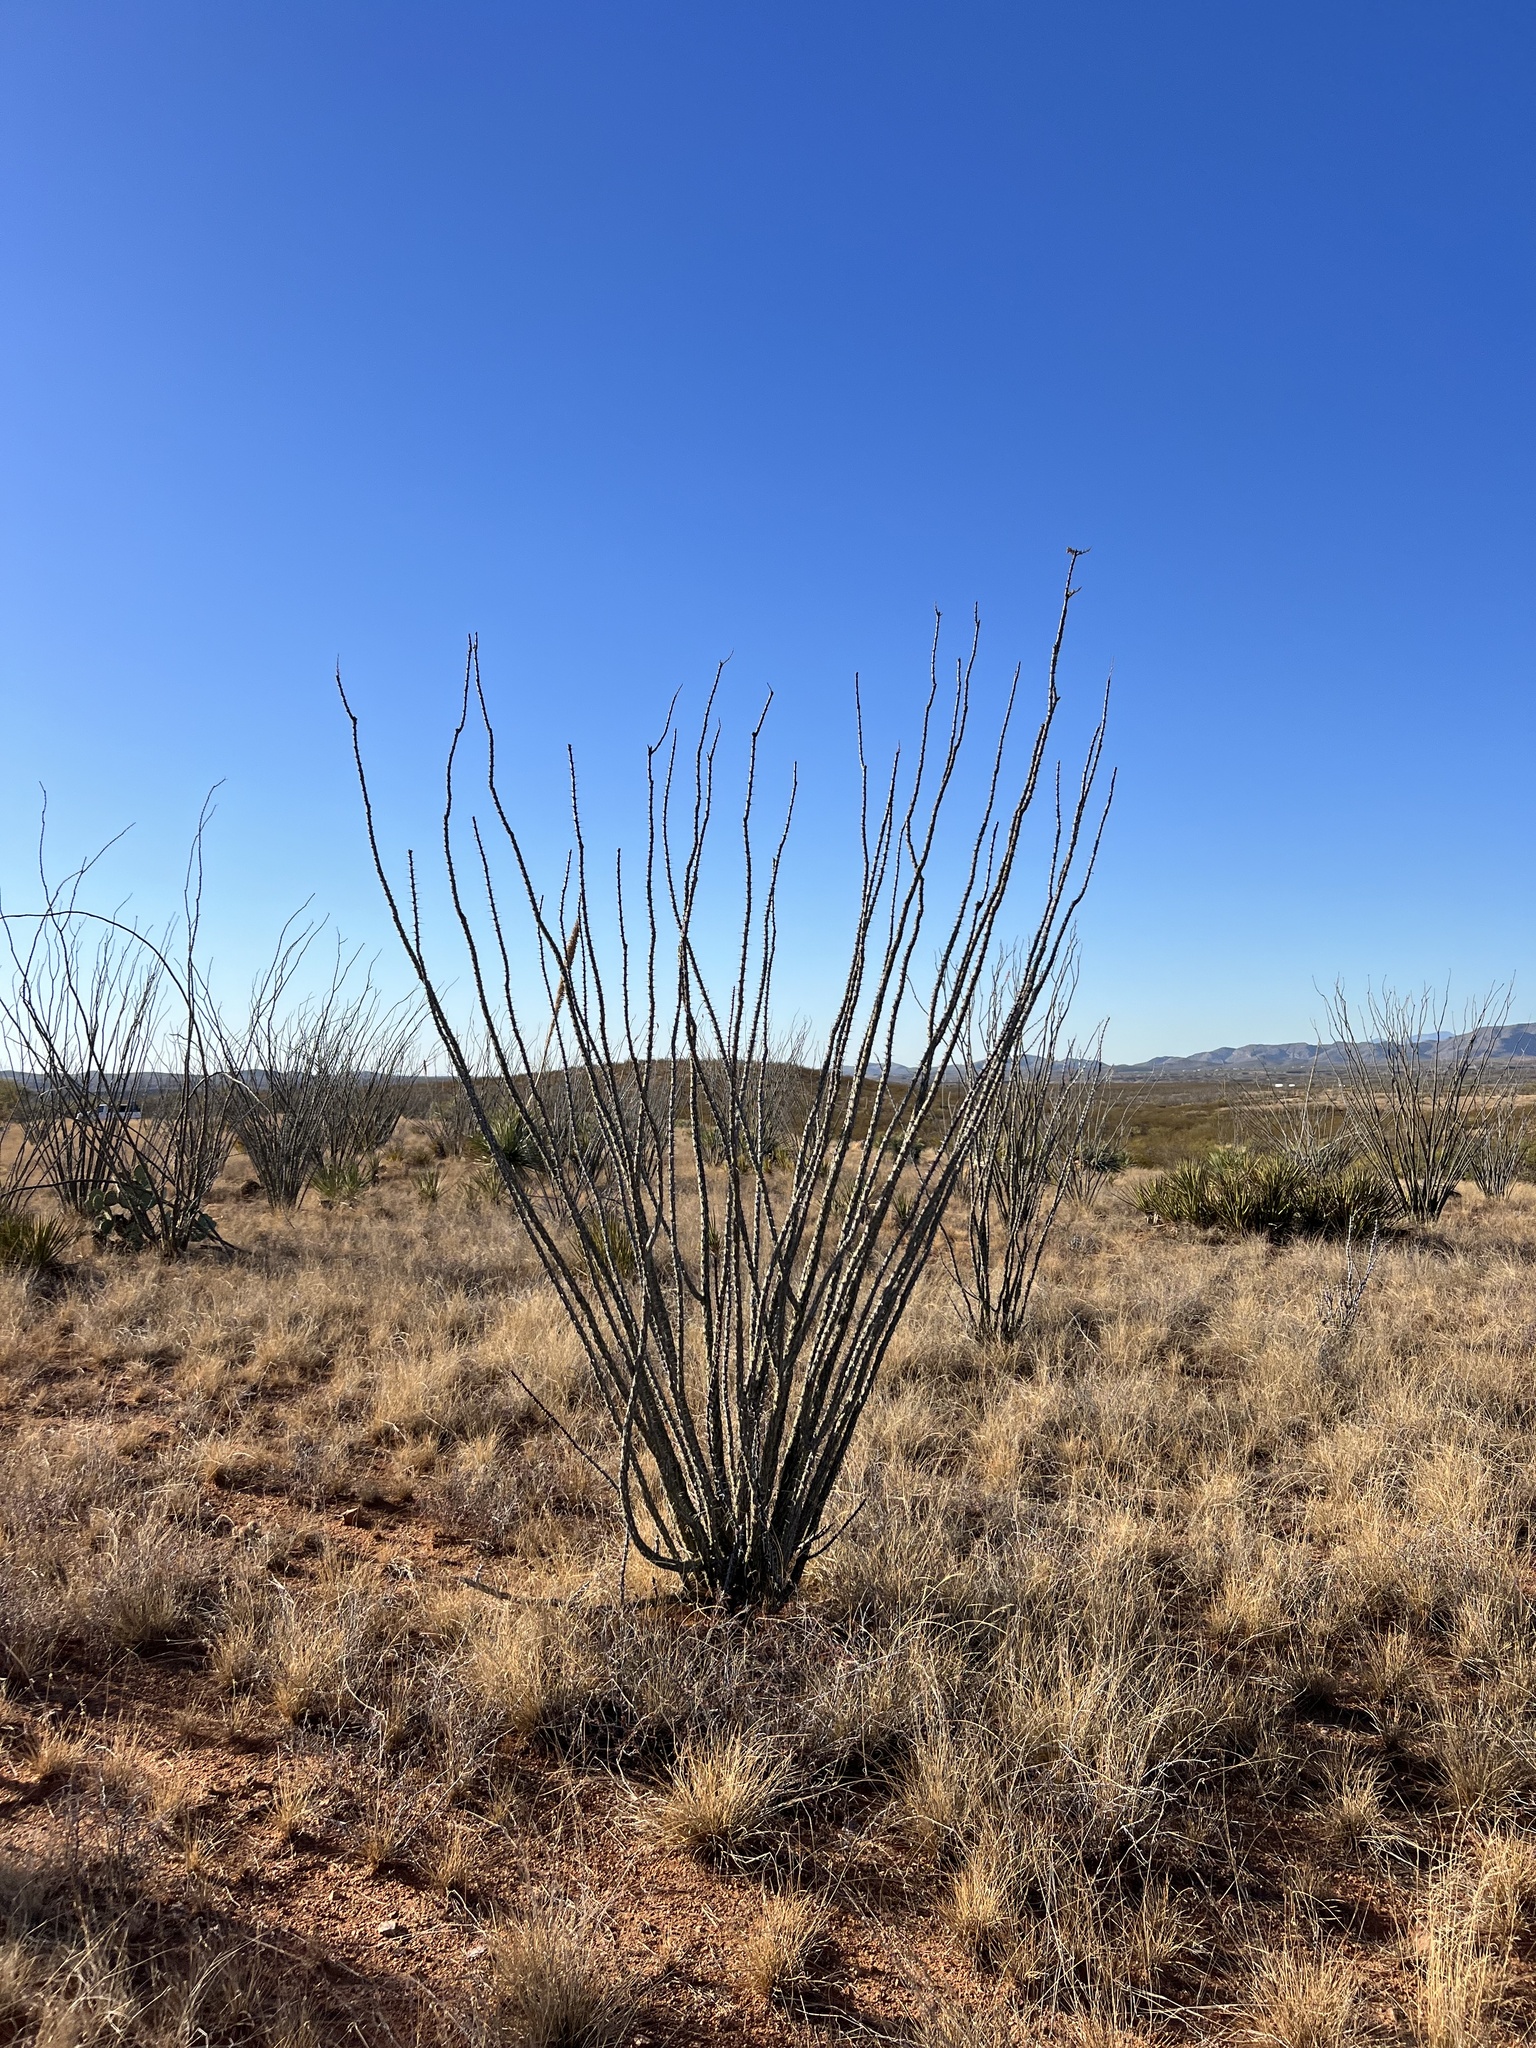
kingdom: Plantae
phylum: Tracheophyta
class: Magnoliopsida
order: Ericales
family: Fouquieriaceae
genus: Fouquieria
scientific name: Fouquieria splendens
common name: Vine-cactus
